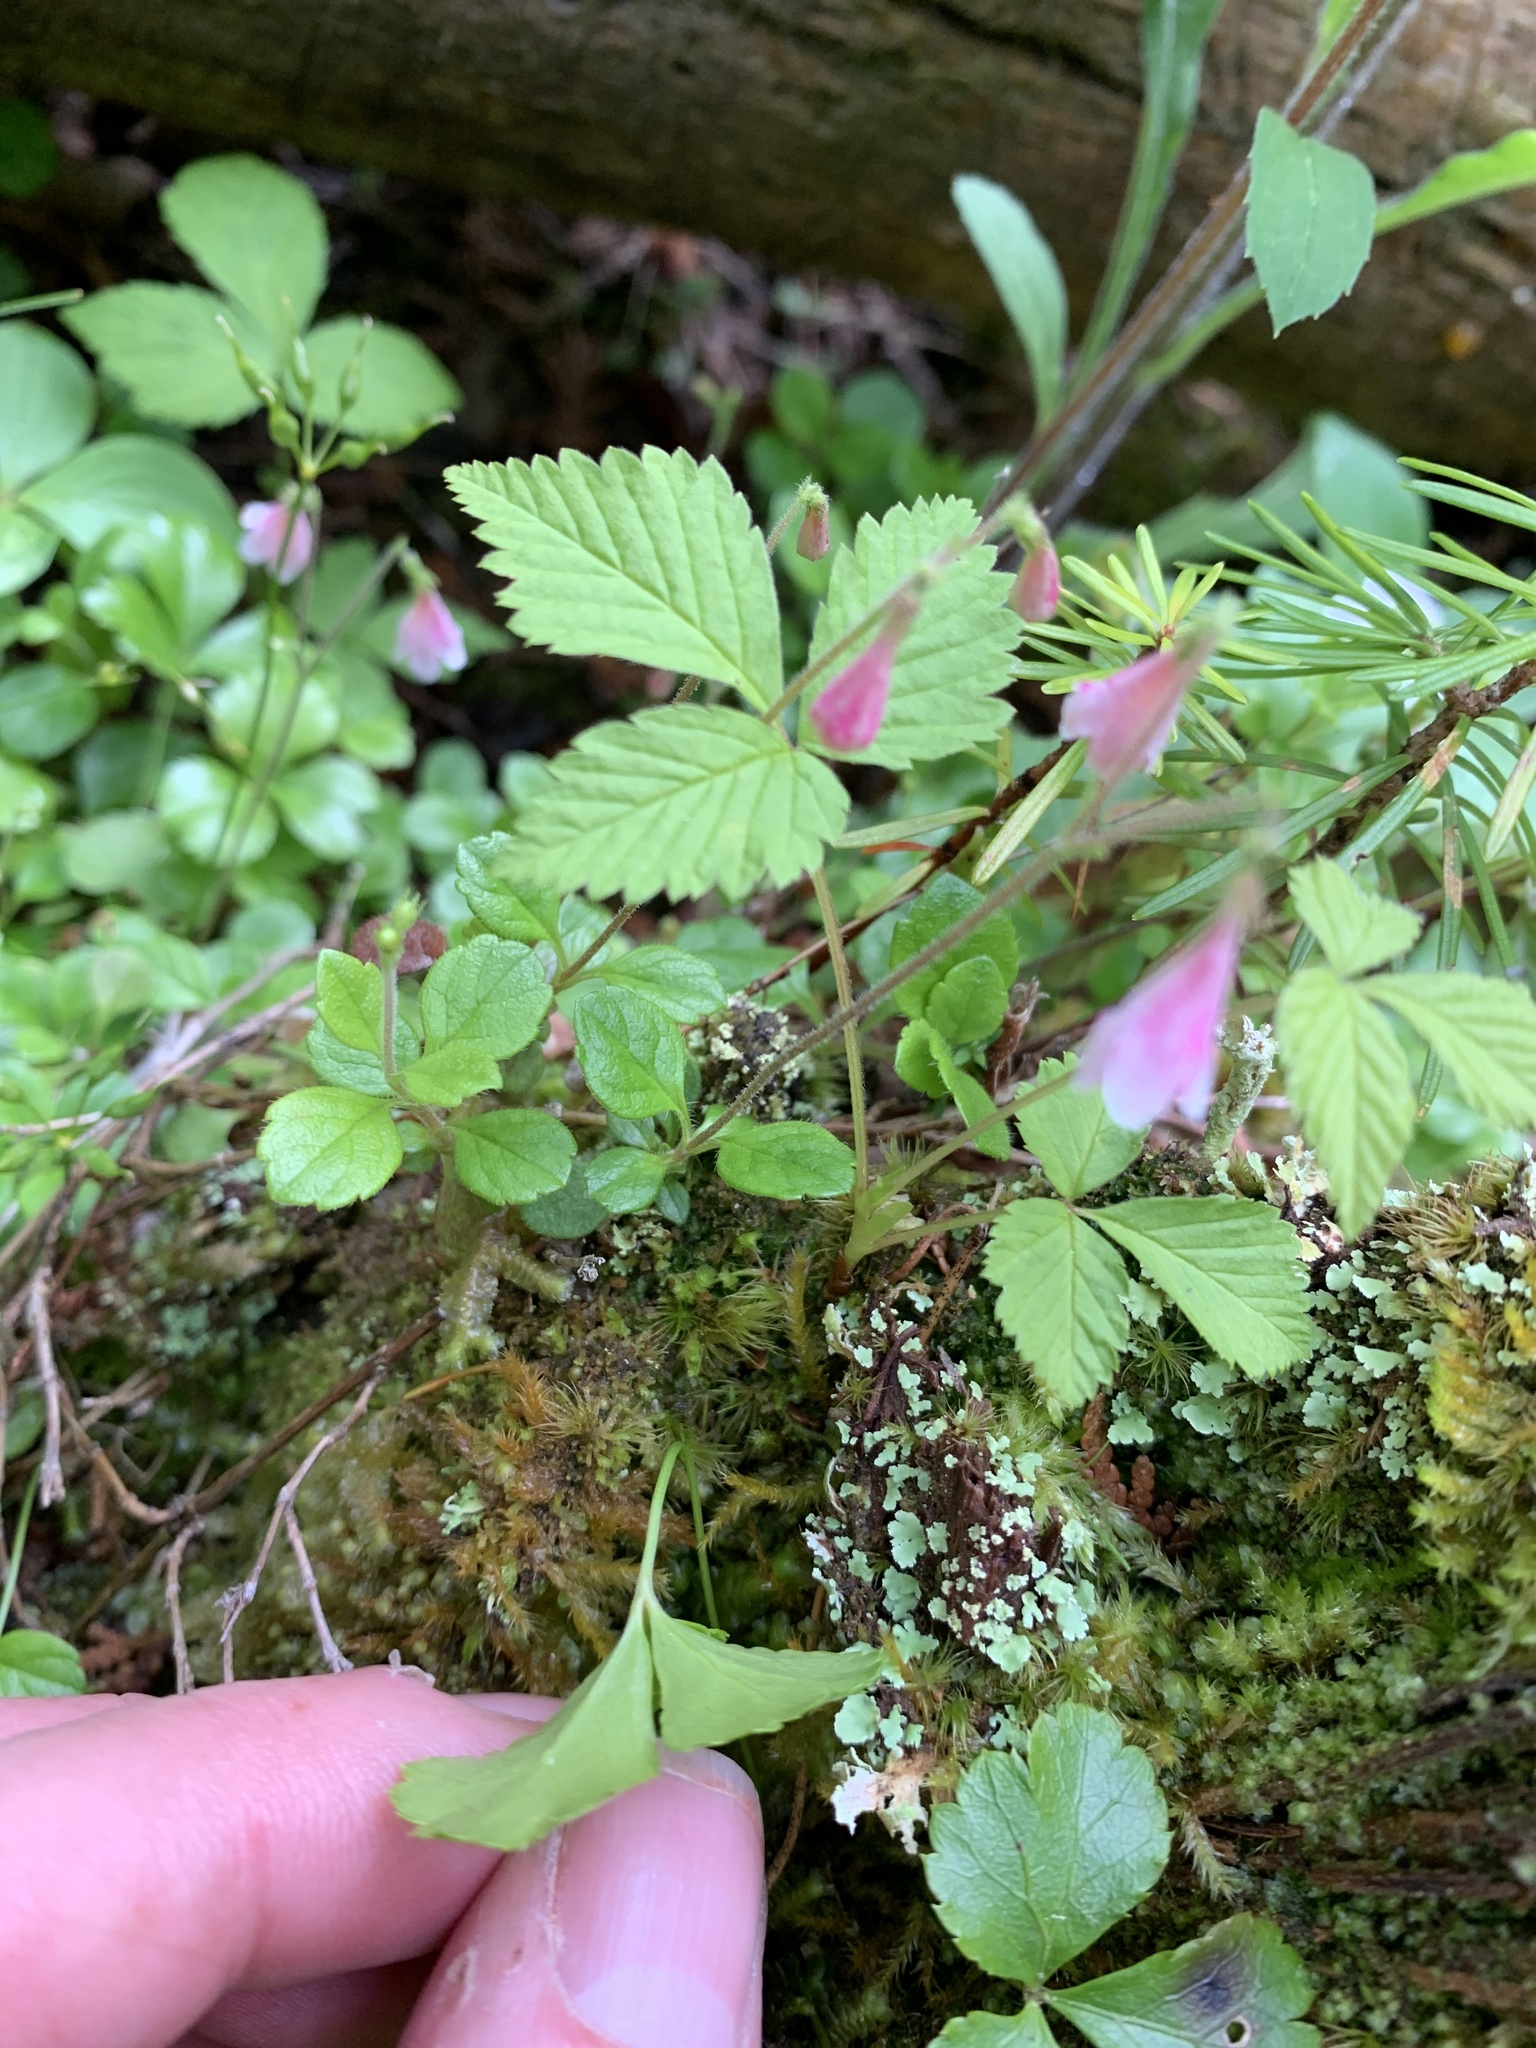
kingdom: Plantae
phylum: Tracheophyta
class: Magnoliopsida
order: Dipsacales
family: Caprifoliaceae
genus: Linnaea
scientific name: Linnaea borealis
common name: Twinflower
